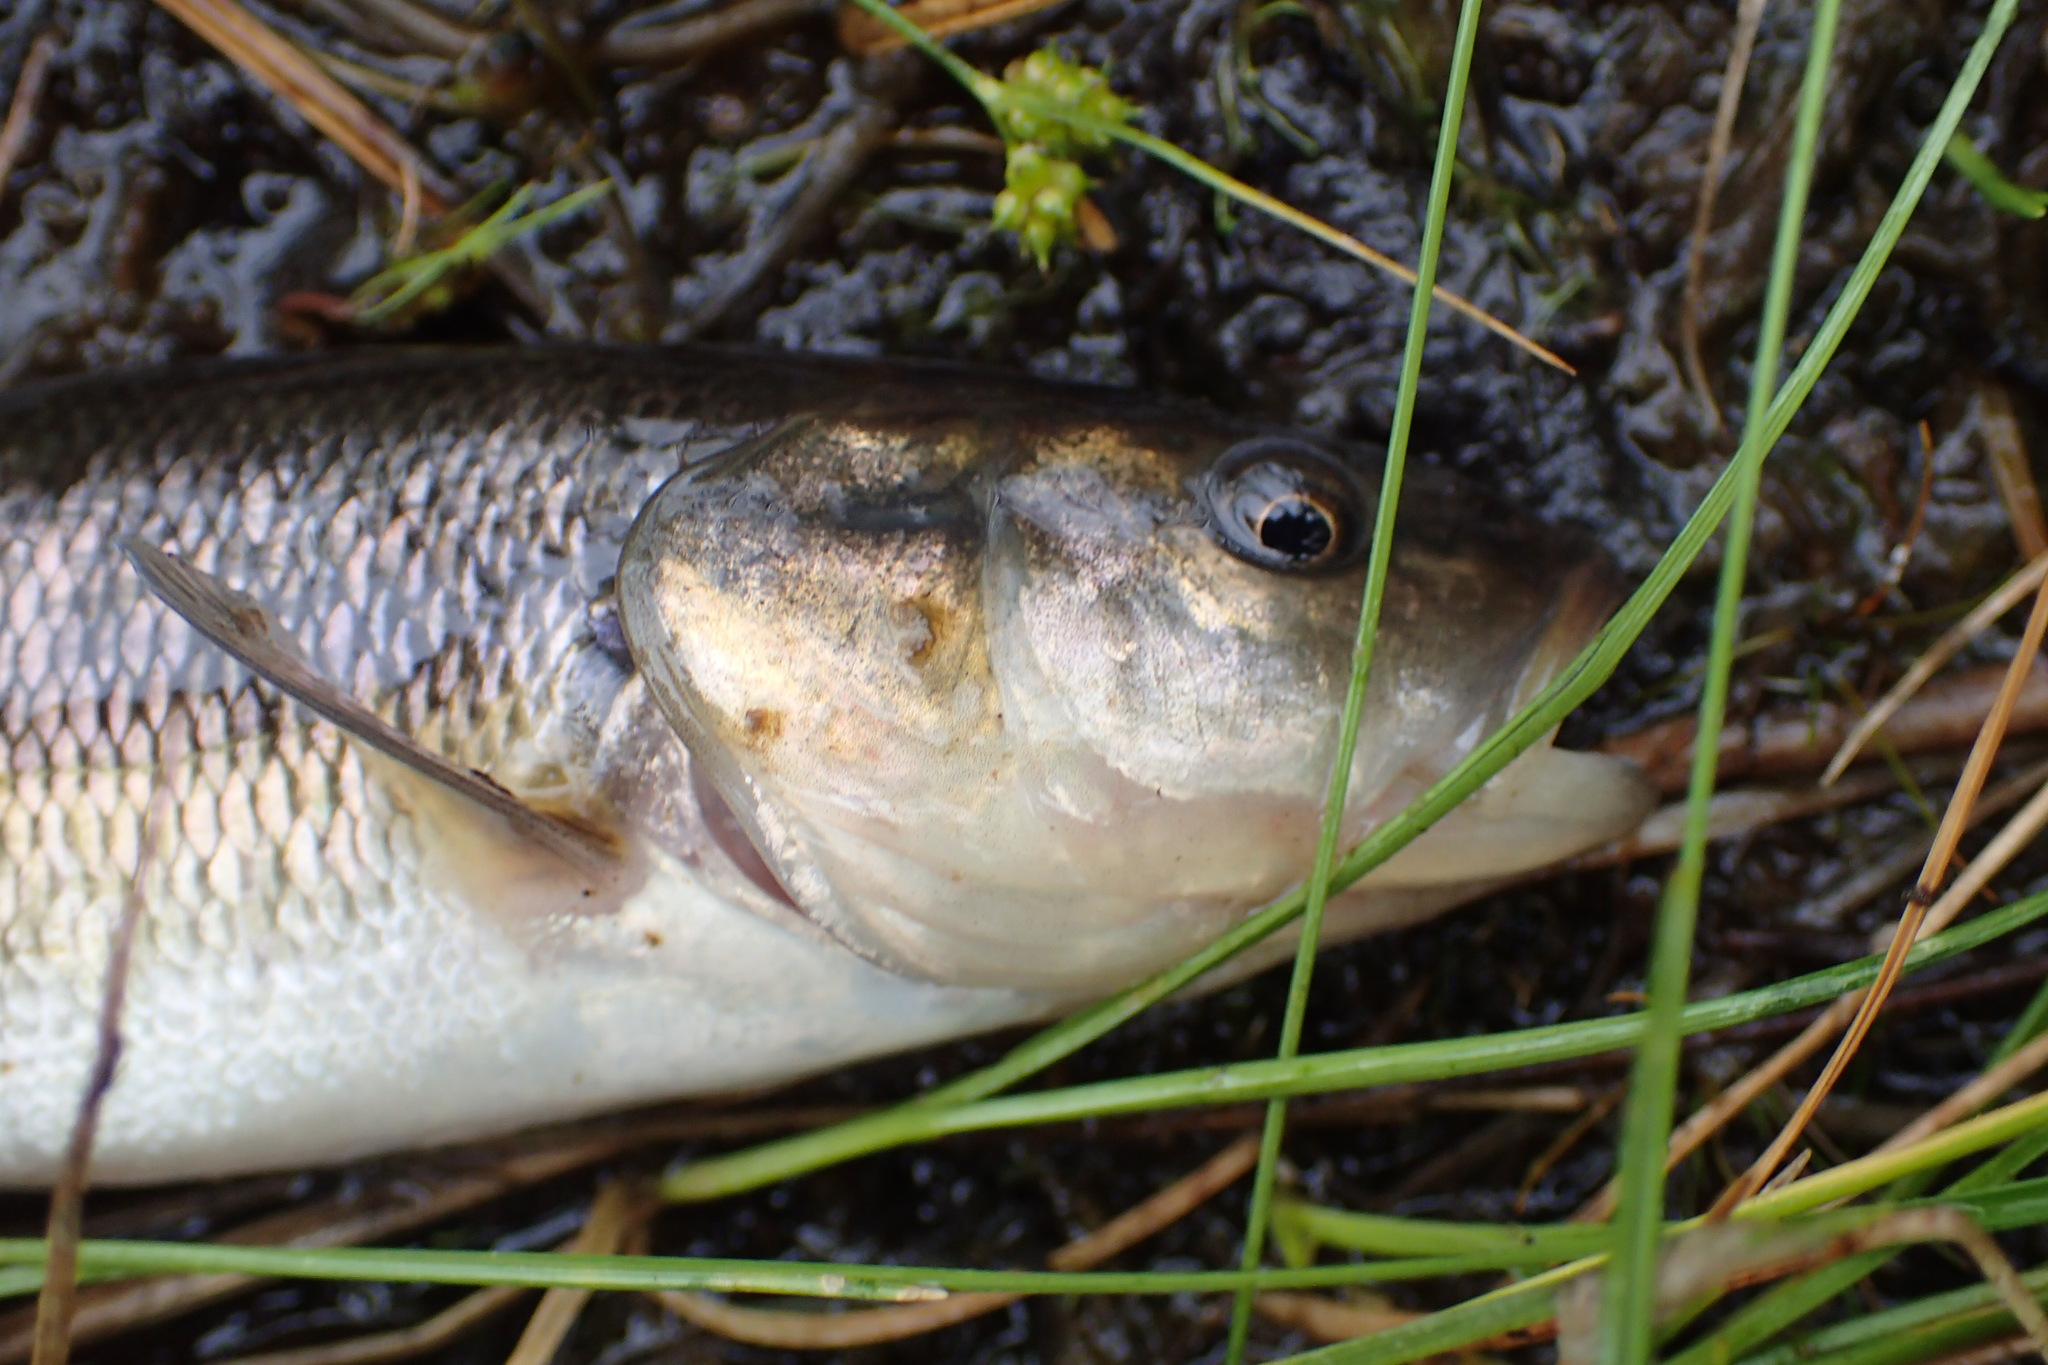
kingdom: Animalia
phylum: Chordata
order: Cypriniformes
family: Cyprinidae
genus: Semotilus
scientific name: Semotilus atromaculatus
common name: Creek chub
